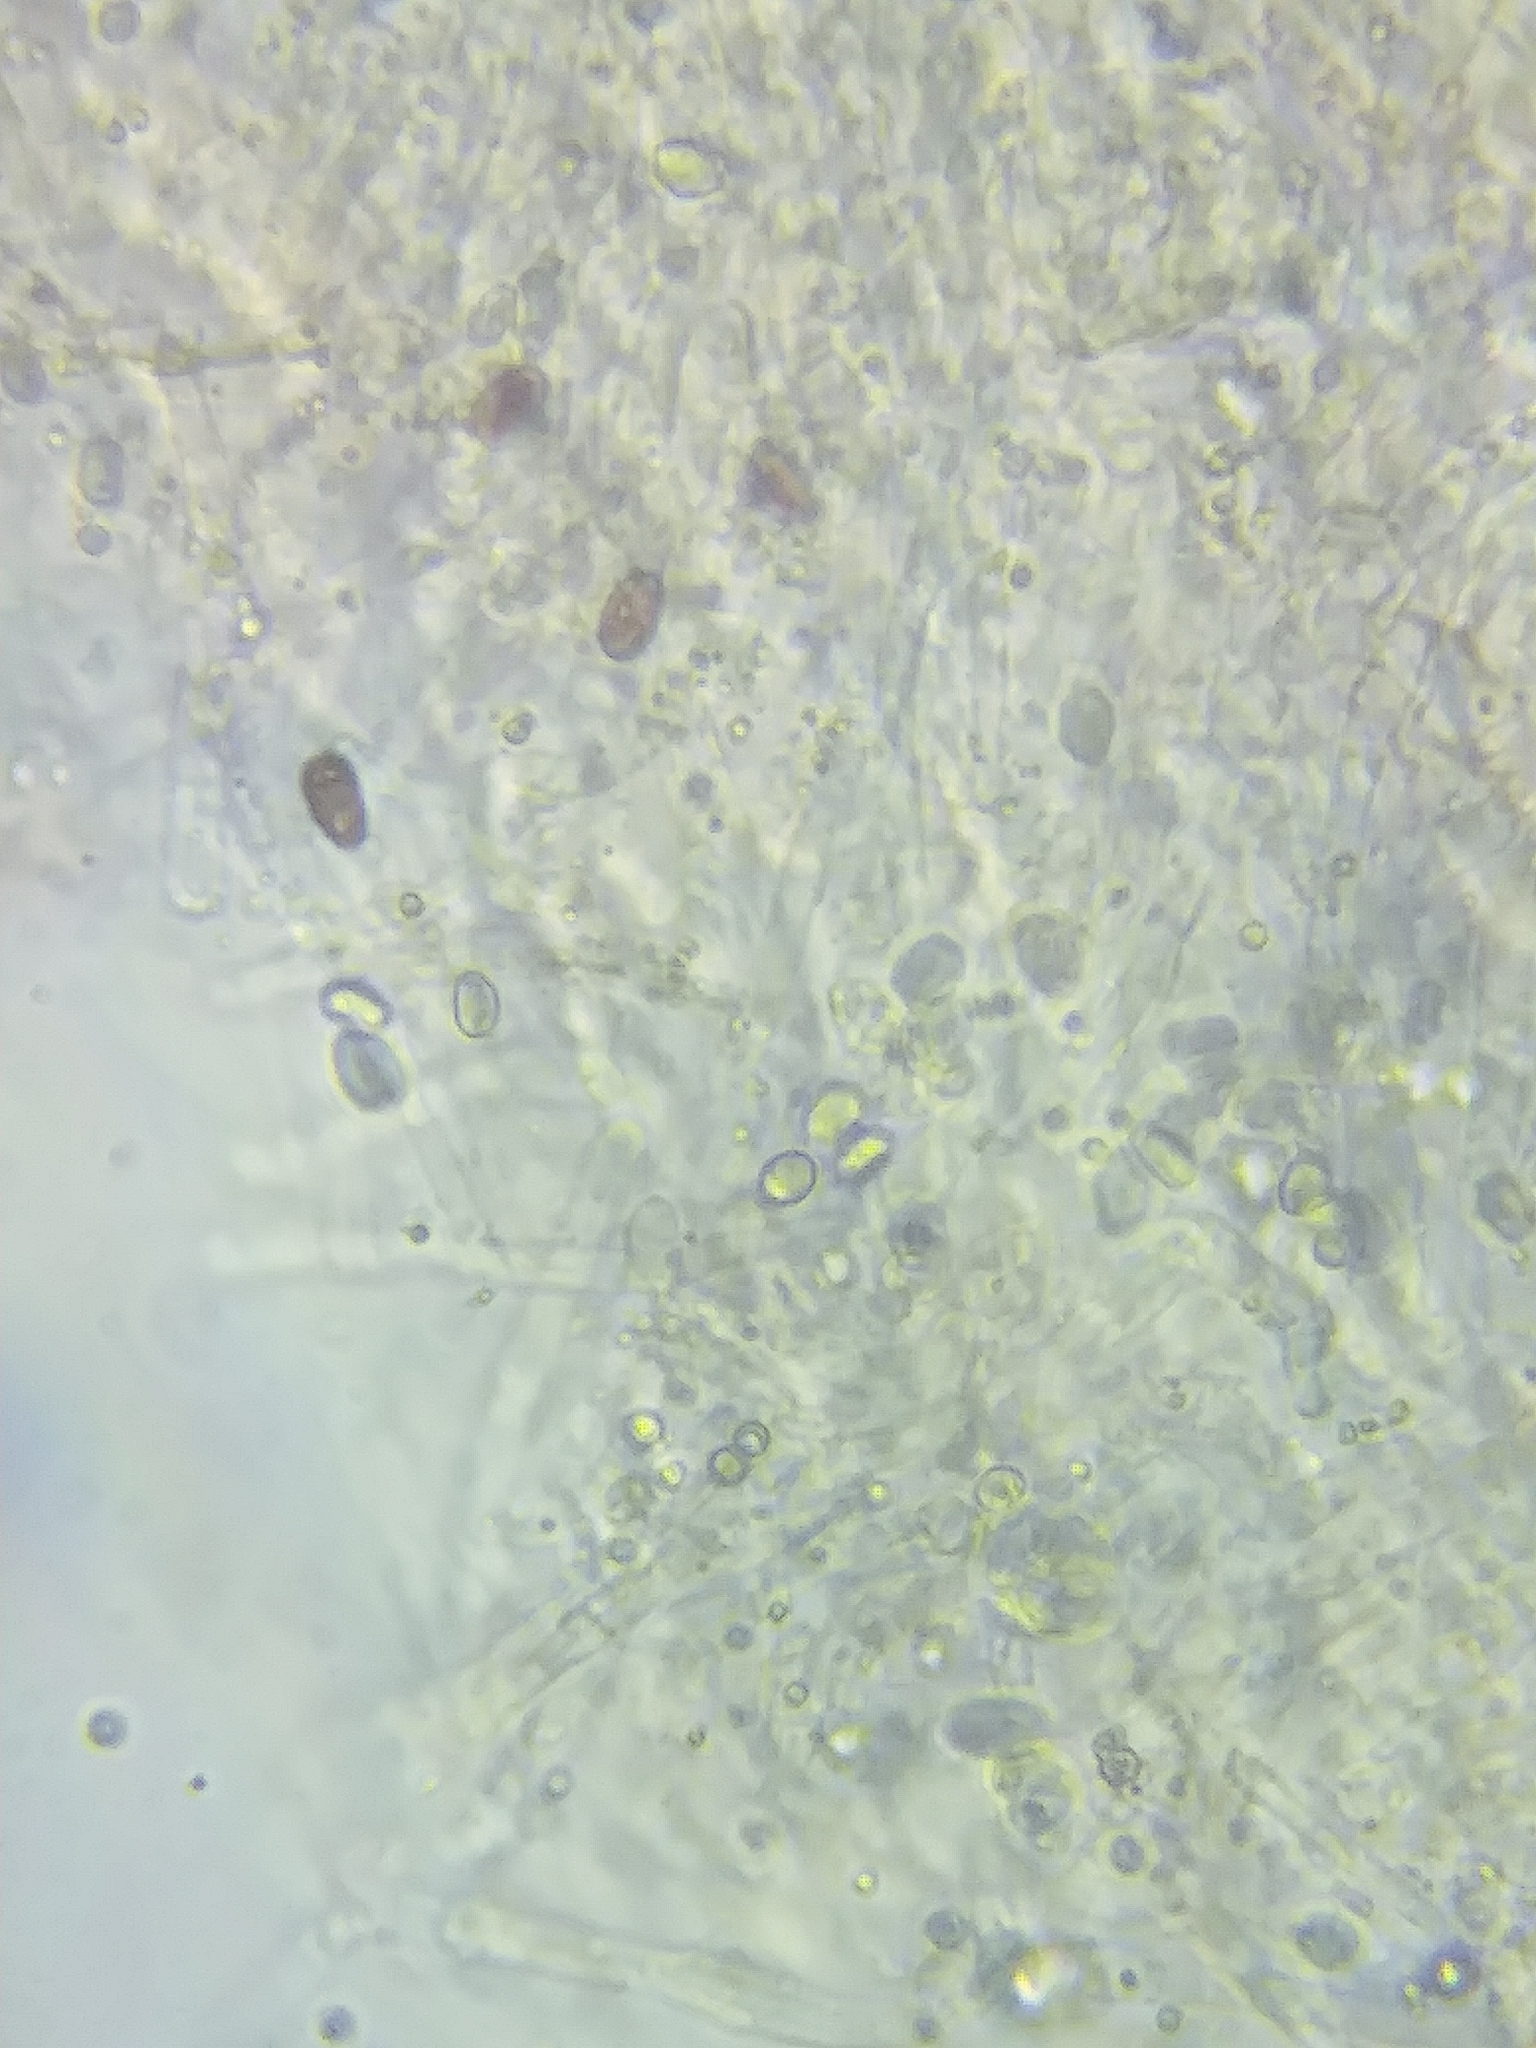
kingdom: Fungi
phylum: Basidiomycota
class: Agaricomycetes
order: Agaricales
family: Tricholomataceae
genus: Pseudoomphalina
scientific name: Pseudoomphalina compressipes
